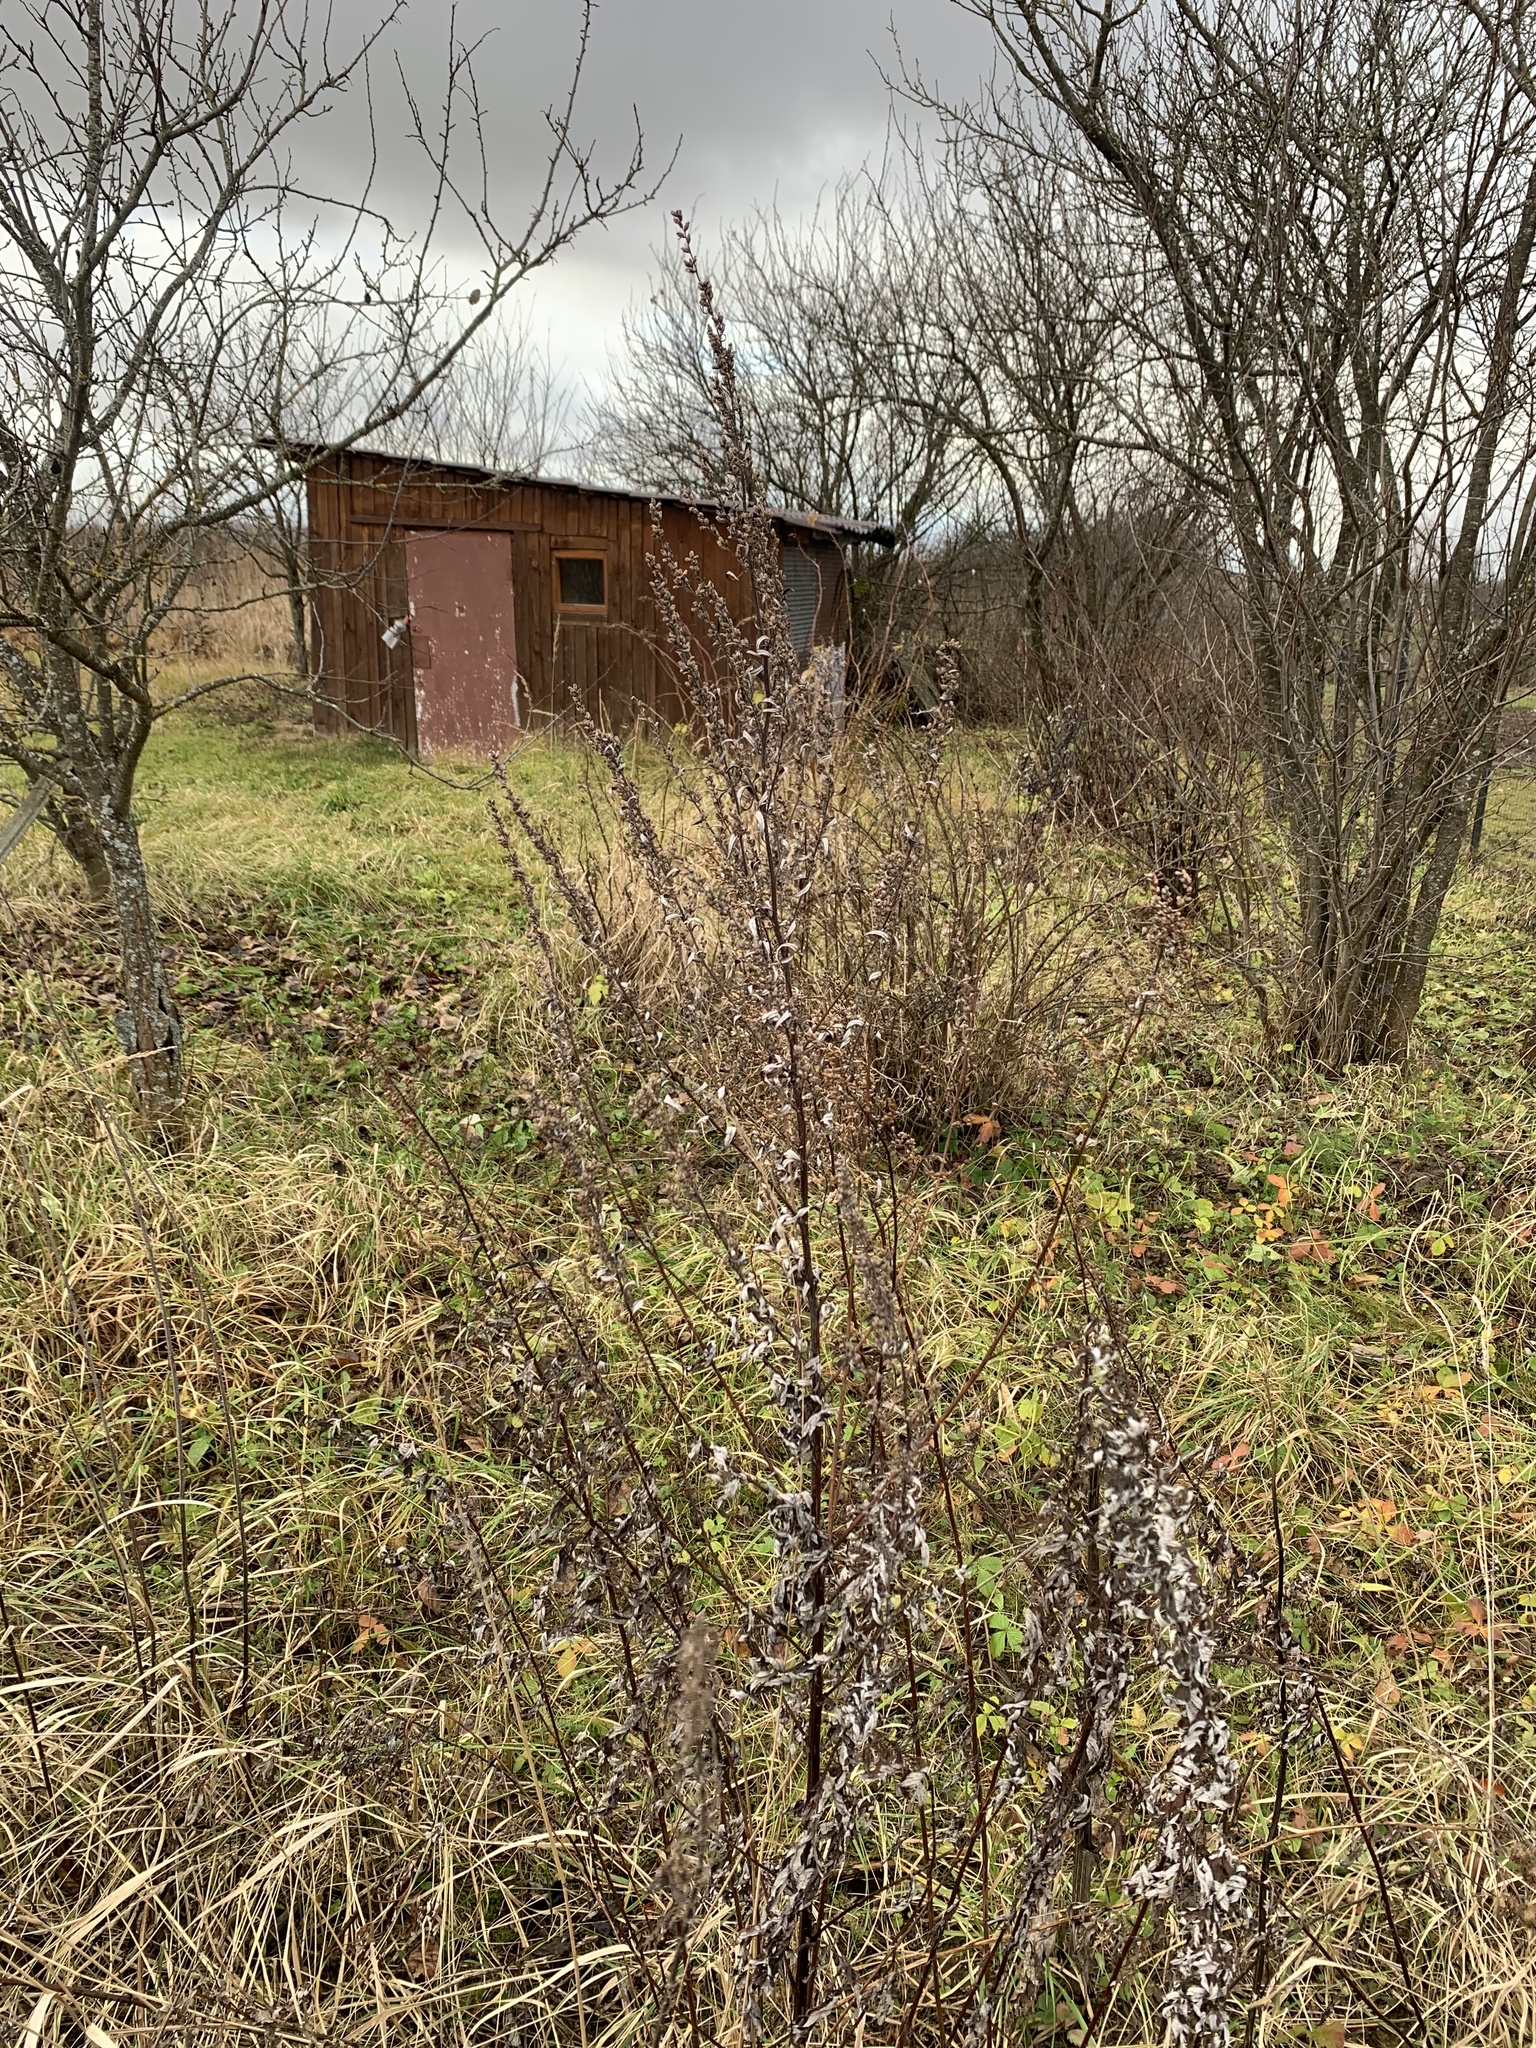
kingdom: Plantae
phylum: Tracheophyta
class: Magnoliopsida
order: Asterales
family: Asteraceae
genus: Artemisia
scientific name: Artemisia vulgaris
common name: Mugwort
